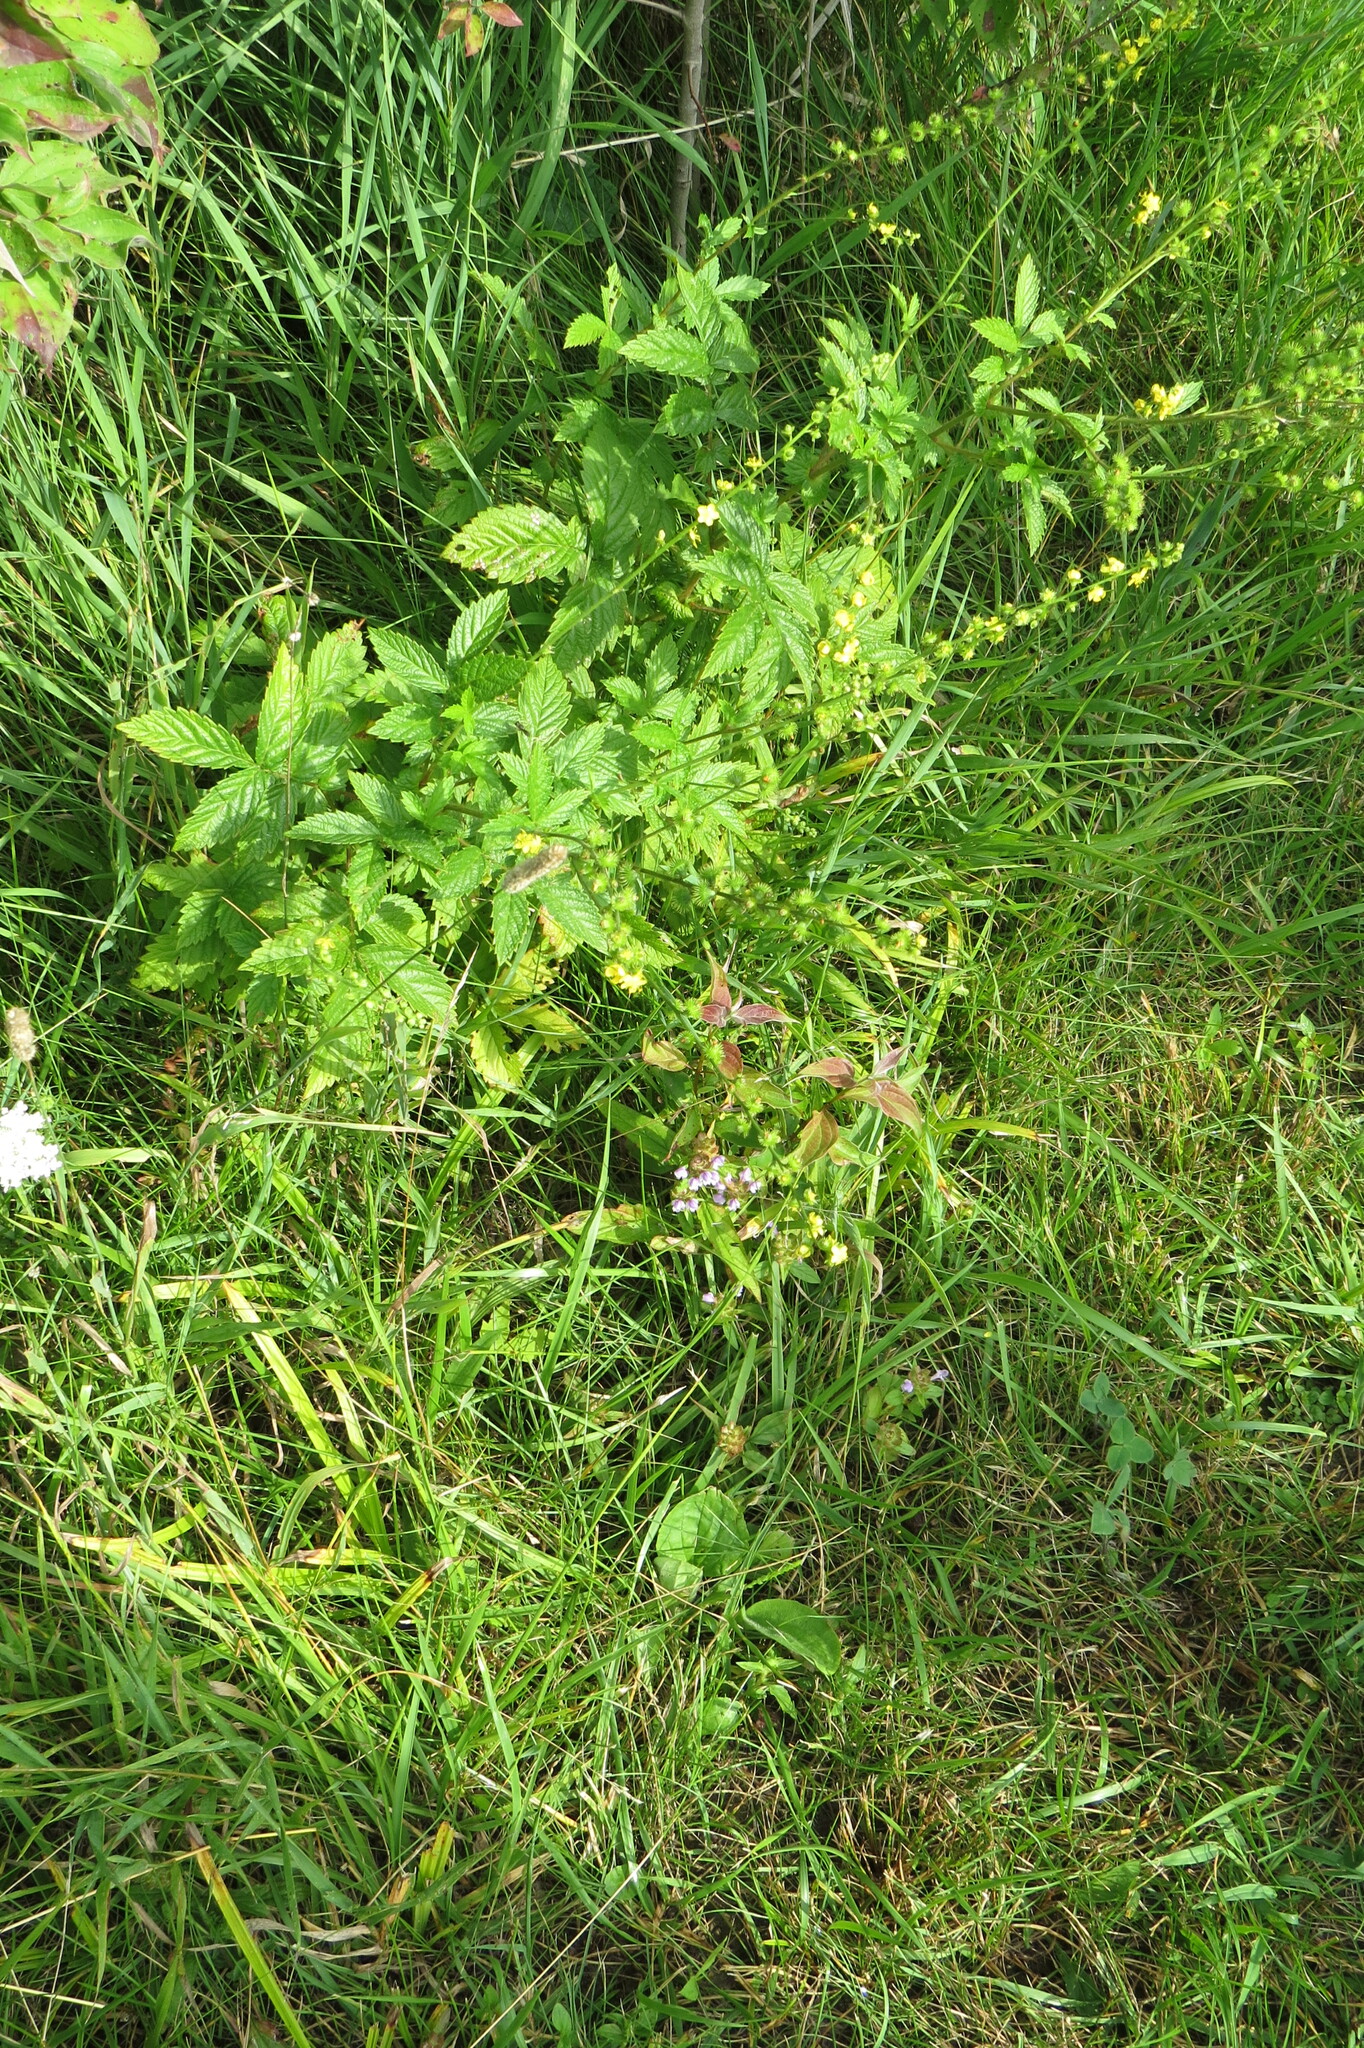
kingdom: Plantae
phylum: Tracheophyta
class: Magnoliopsida
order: Rosales
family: Rosaceae
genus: Agrimonia
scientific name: Agrimonia gryposepala
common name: Common agrimony
